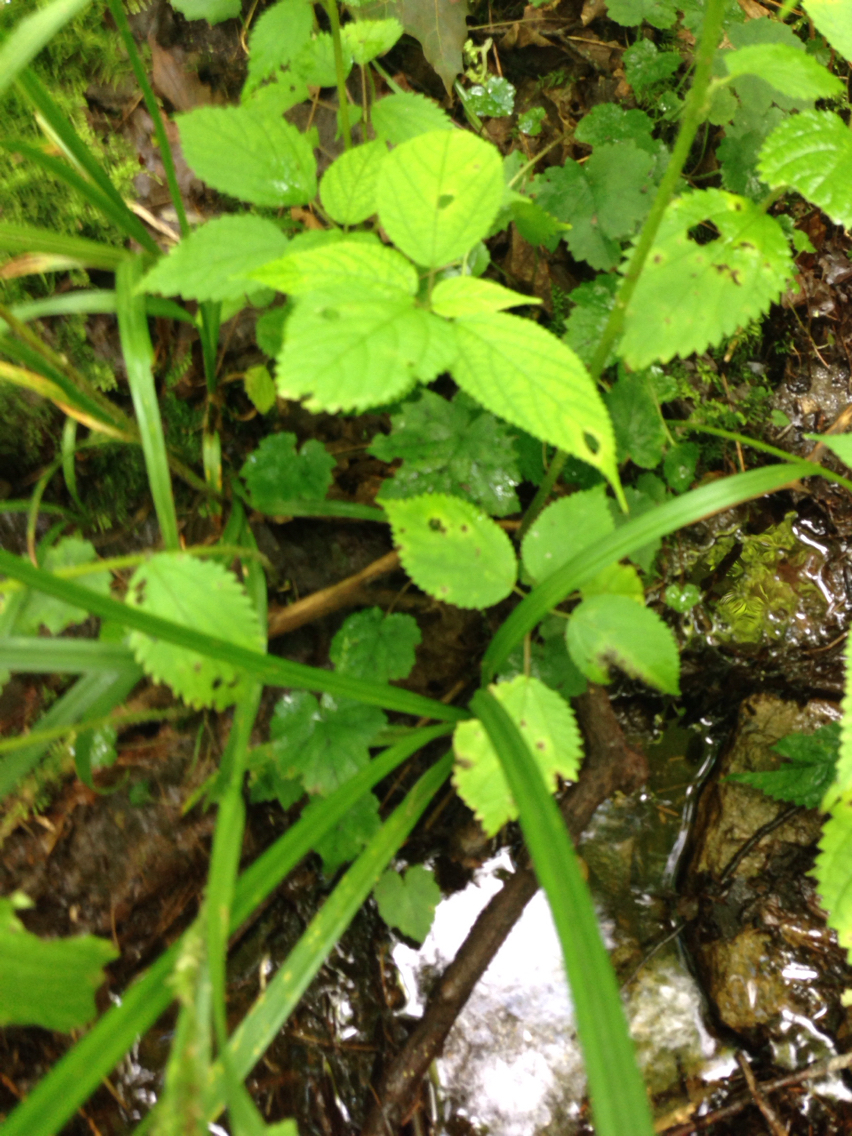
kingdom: Plantae
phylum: Tracheophyta
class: Magnoliopsida
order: Saxifragales
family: Saxifragaceae
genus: Tiarella
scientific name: Tiarella stolonifera
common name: Stoloniferous foamflower
